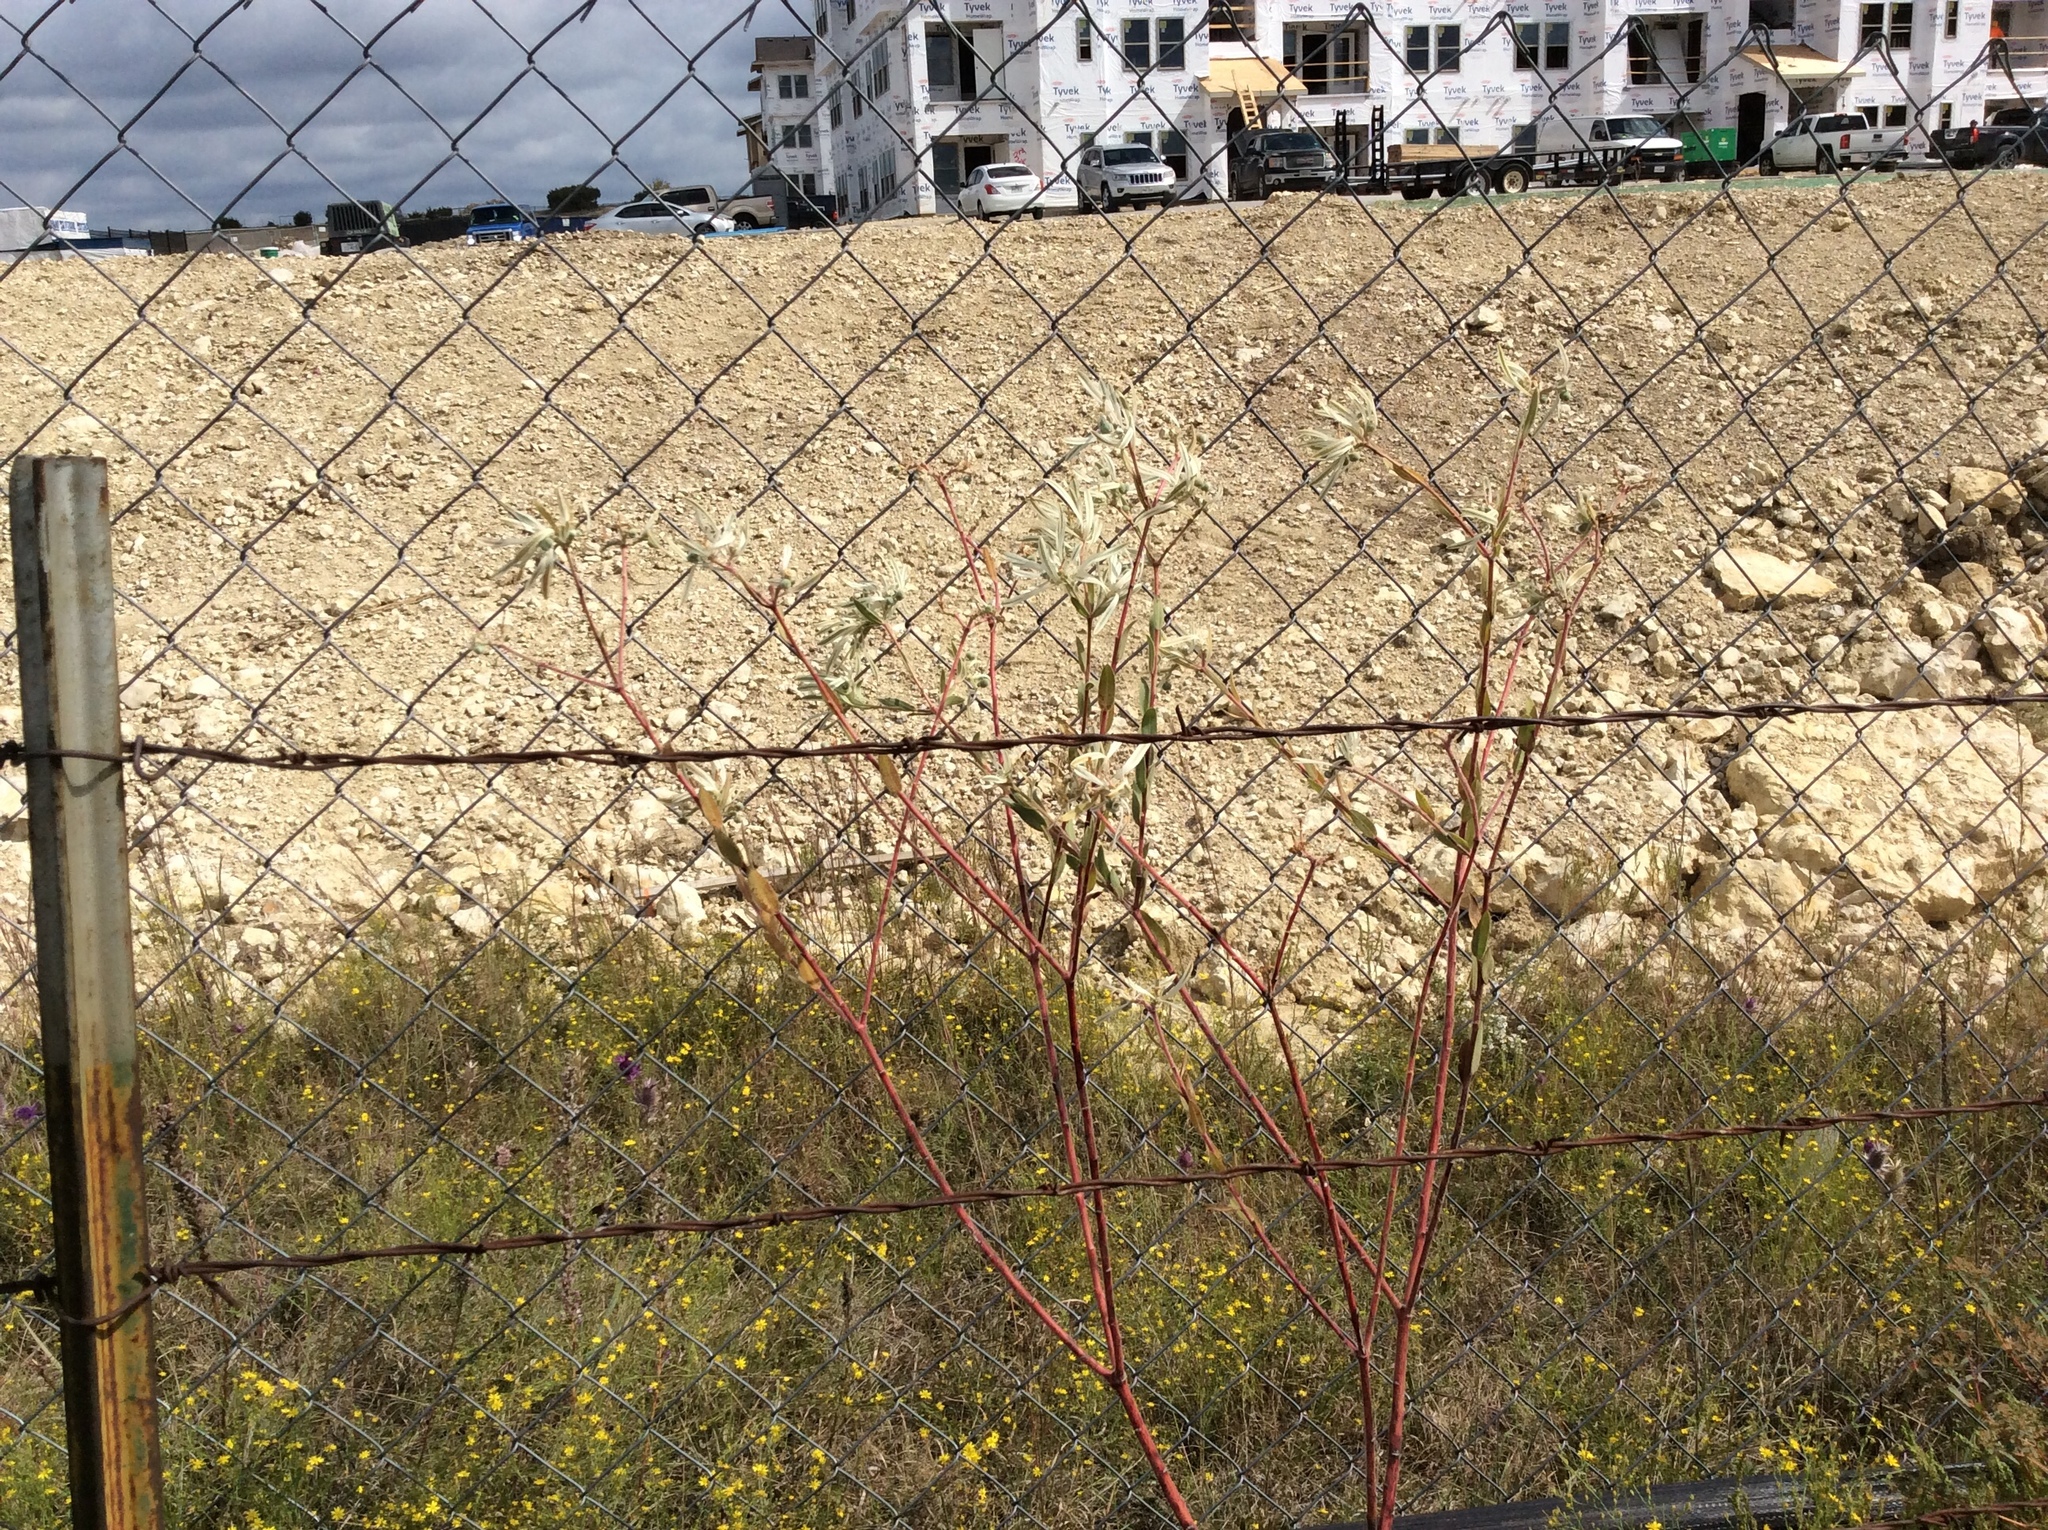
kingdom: Plantae
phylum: Tracheophyta
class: Magnoliopsida
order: Malpighiales
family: Euphorbiaceae
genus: Euphorbia
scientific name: Euphorbia bicolor
